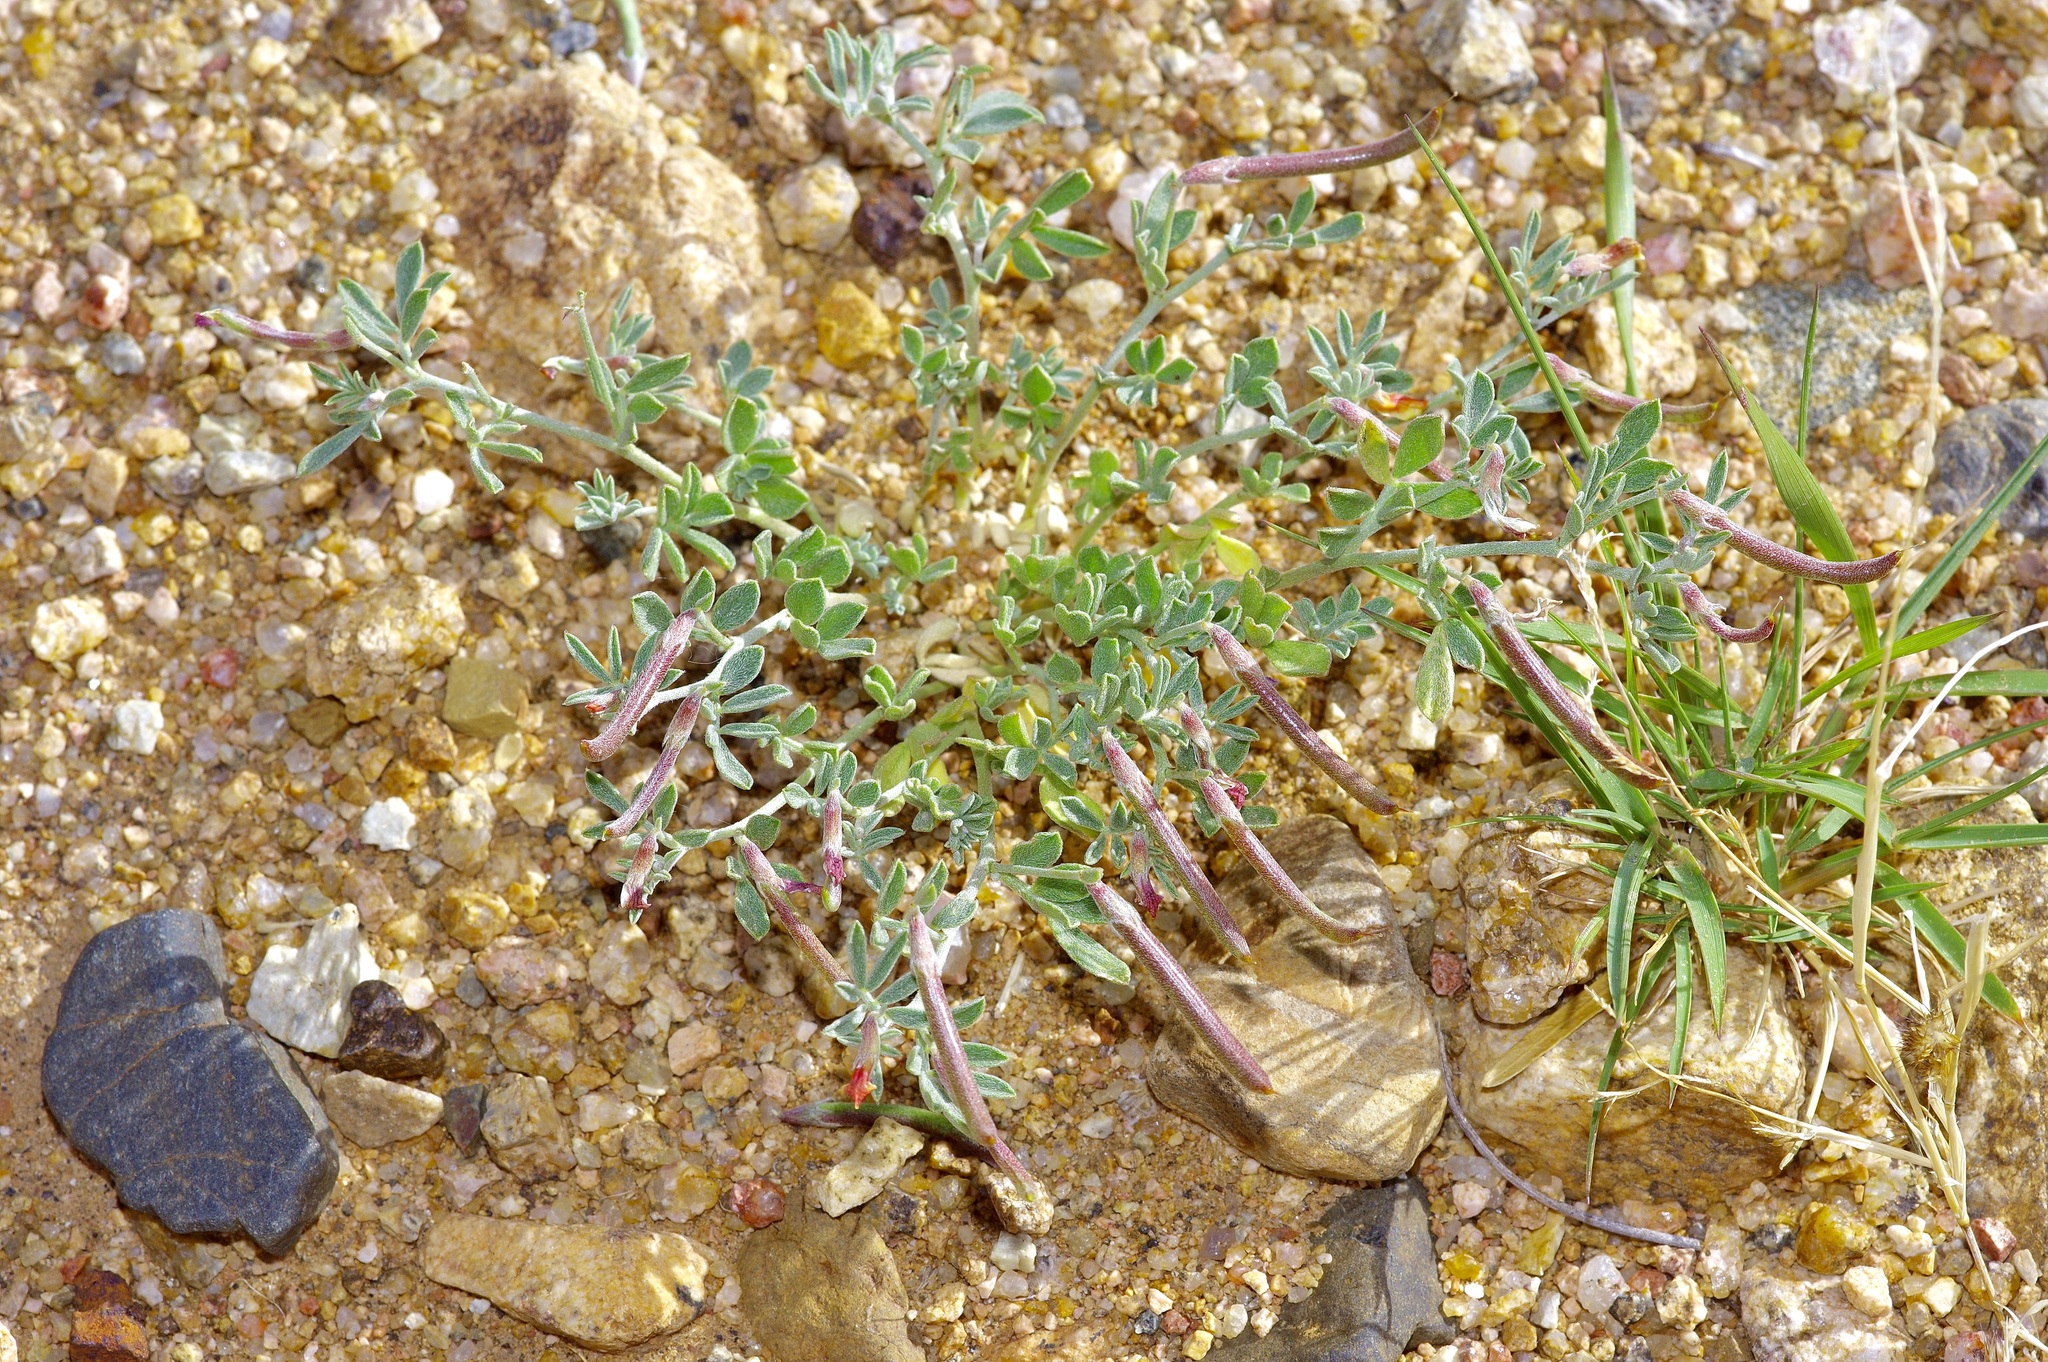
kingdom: Plantae
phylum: Tracheophyta
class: Magnoliopsida
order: Fabales
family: Fabaceae
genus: Acmispon
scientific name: Acmispon oroboides
